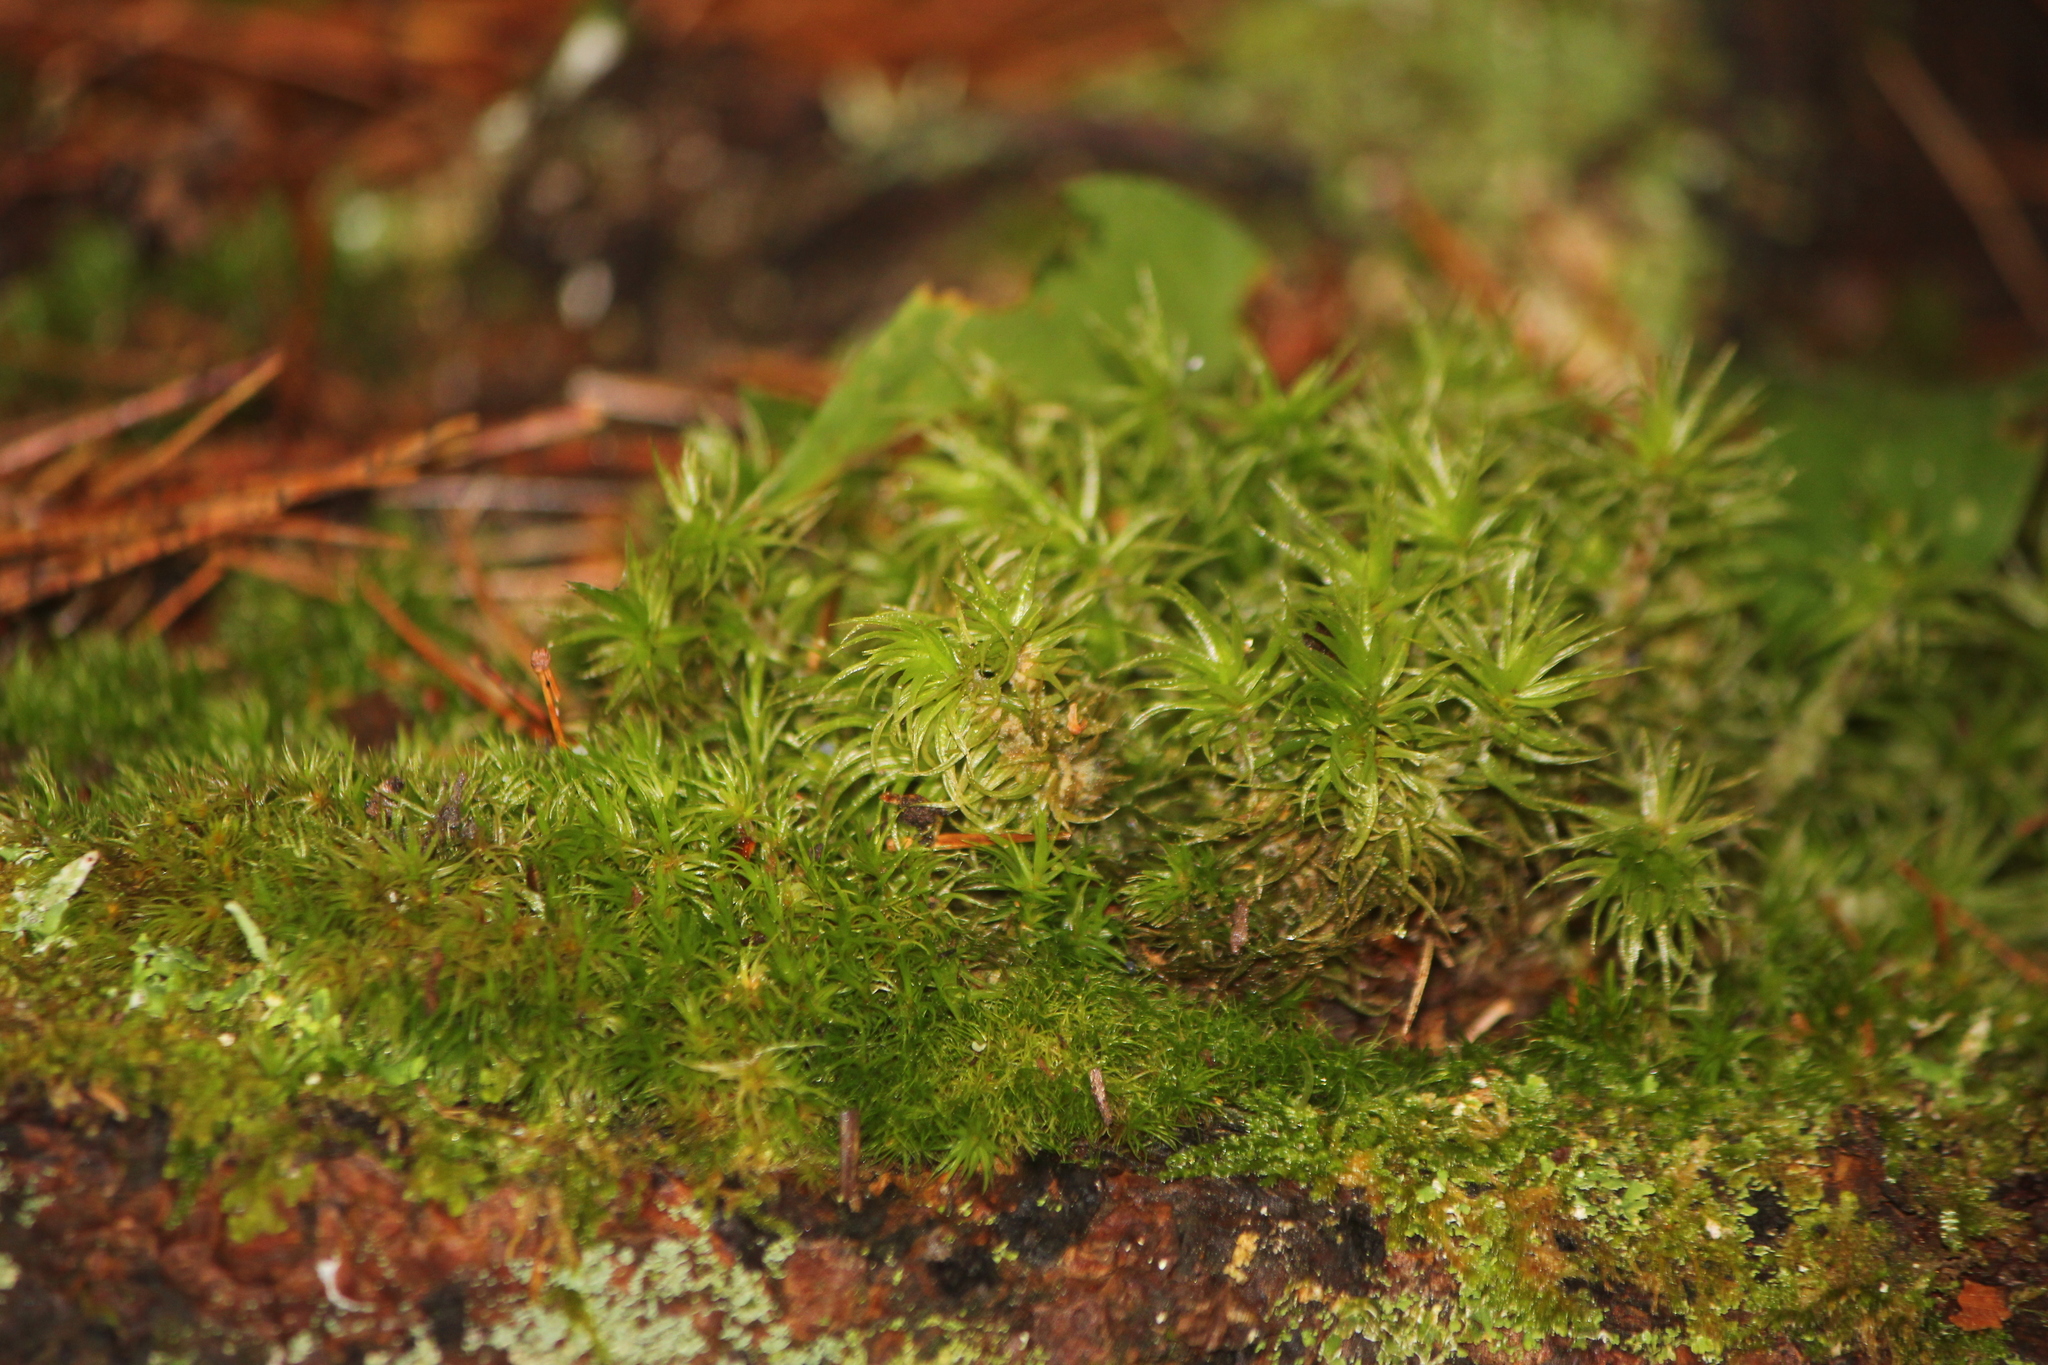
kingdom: Plantae
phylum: Bryophyta
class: Bryopsida
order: Dicranales
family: Dicranaceae
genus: Dicranum
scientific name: Dicranum polysetum
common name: Rugose fork-moss
